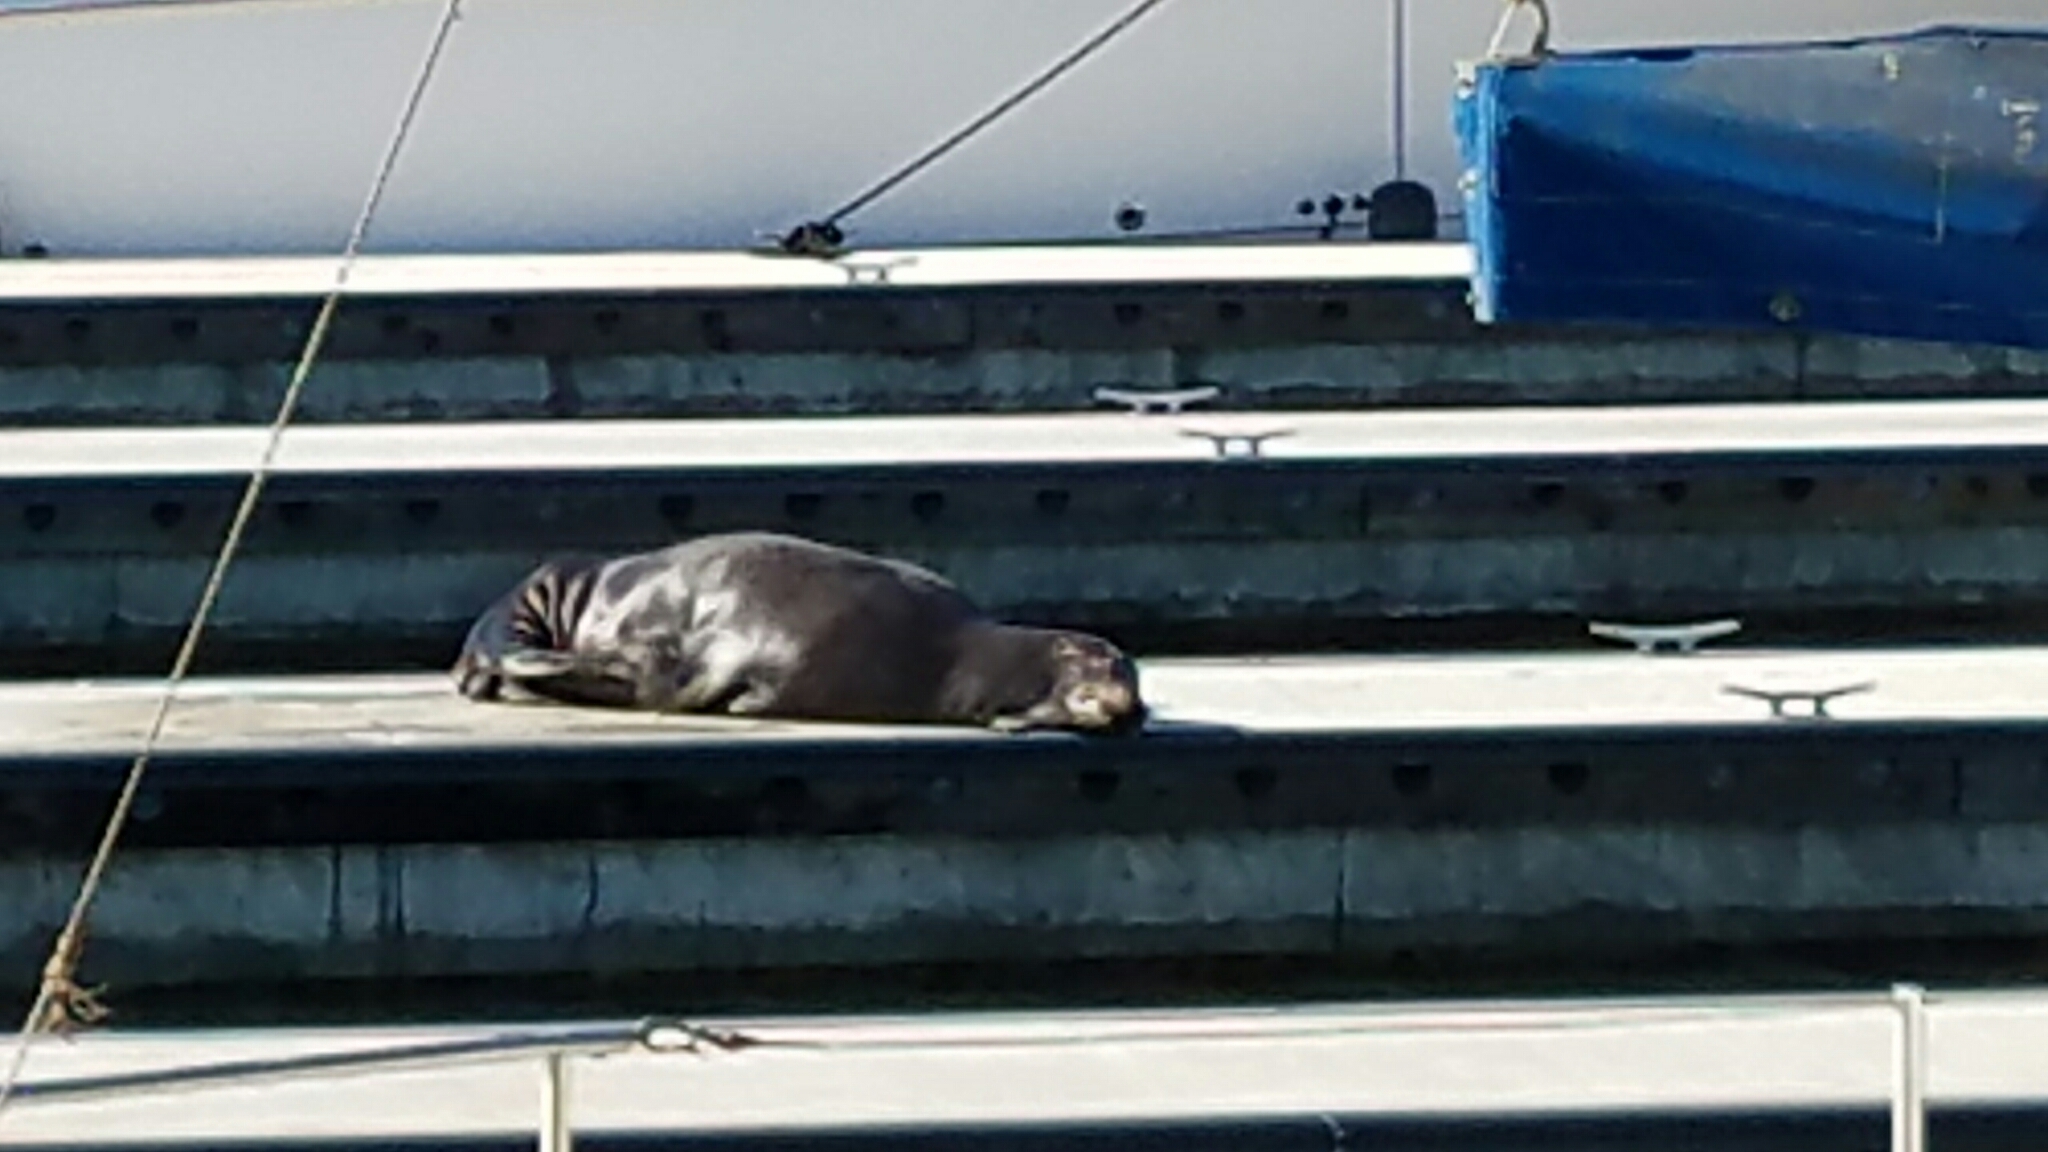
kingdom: Animalia
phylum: Chordata
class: Mammalia
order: Carnivora
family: Otariidae
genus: Zalophus
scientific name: Zalophus californianus
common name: California sea lion
